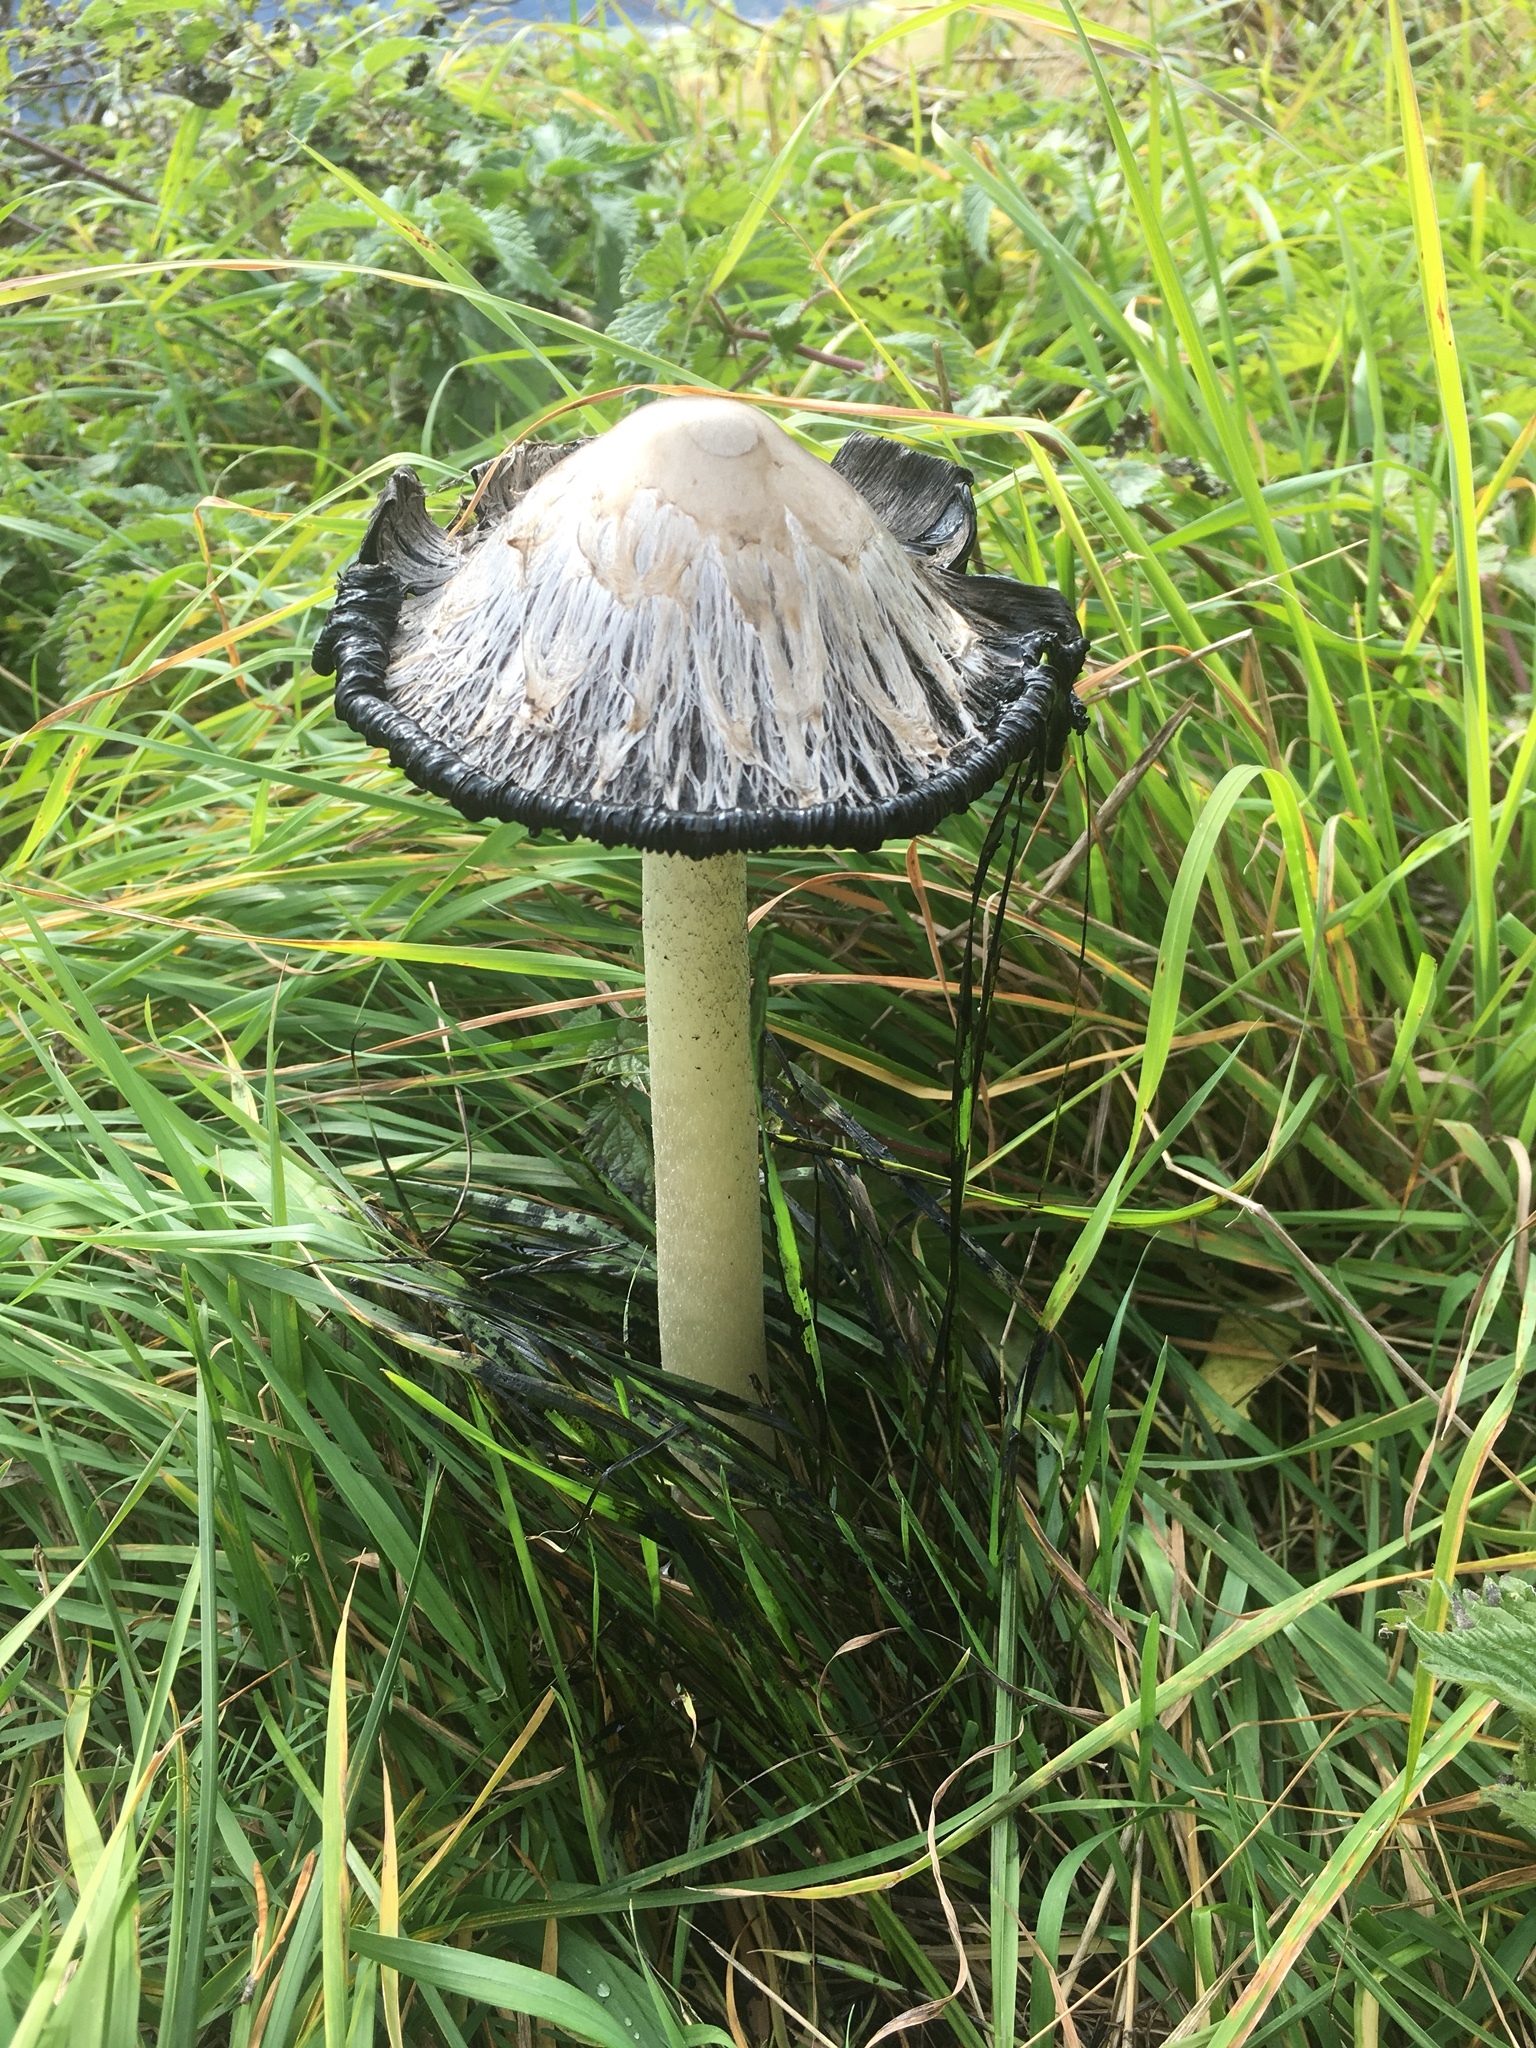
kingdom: Fungi
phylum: Basidiomycota
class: Agaricomycetes
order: Agaricales
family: Agaricaceae
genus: Coprinus
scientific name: Coprinus comatus
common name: Lawyer's wig
